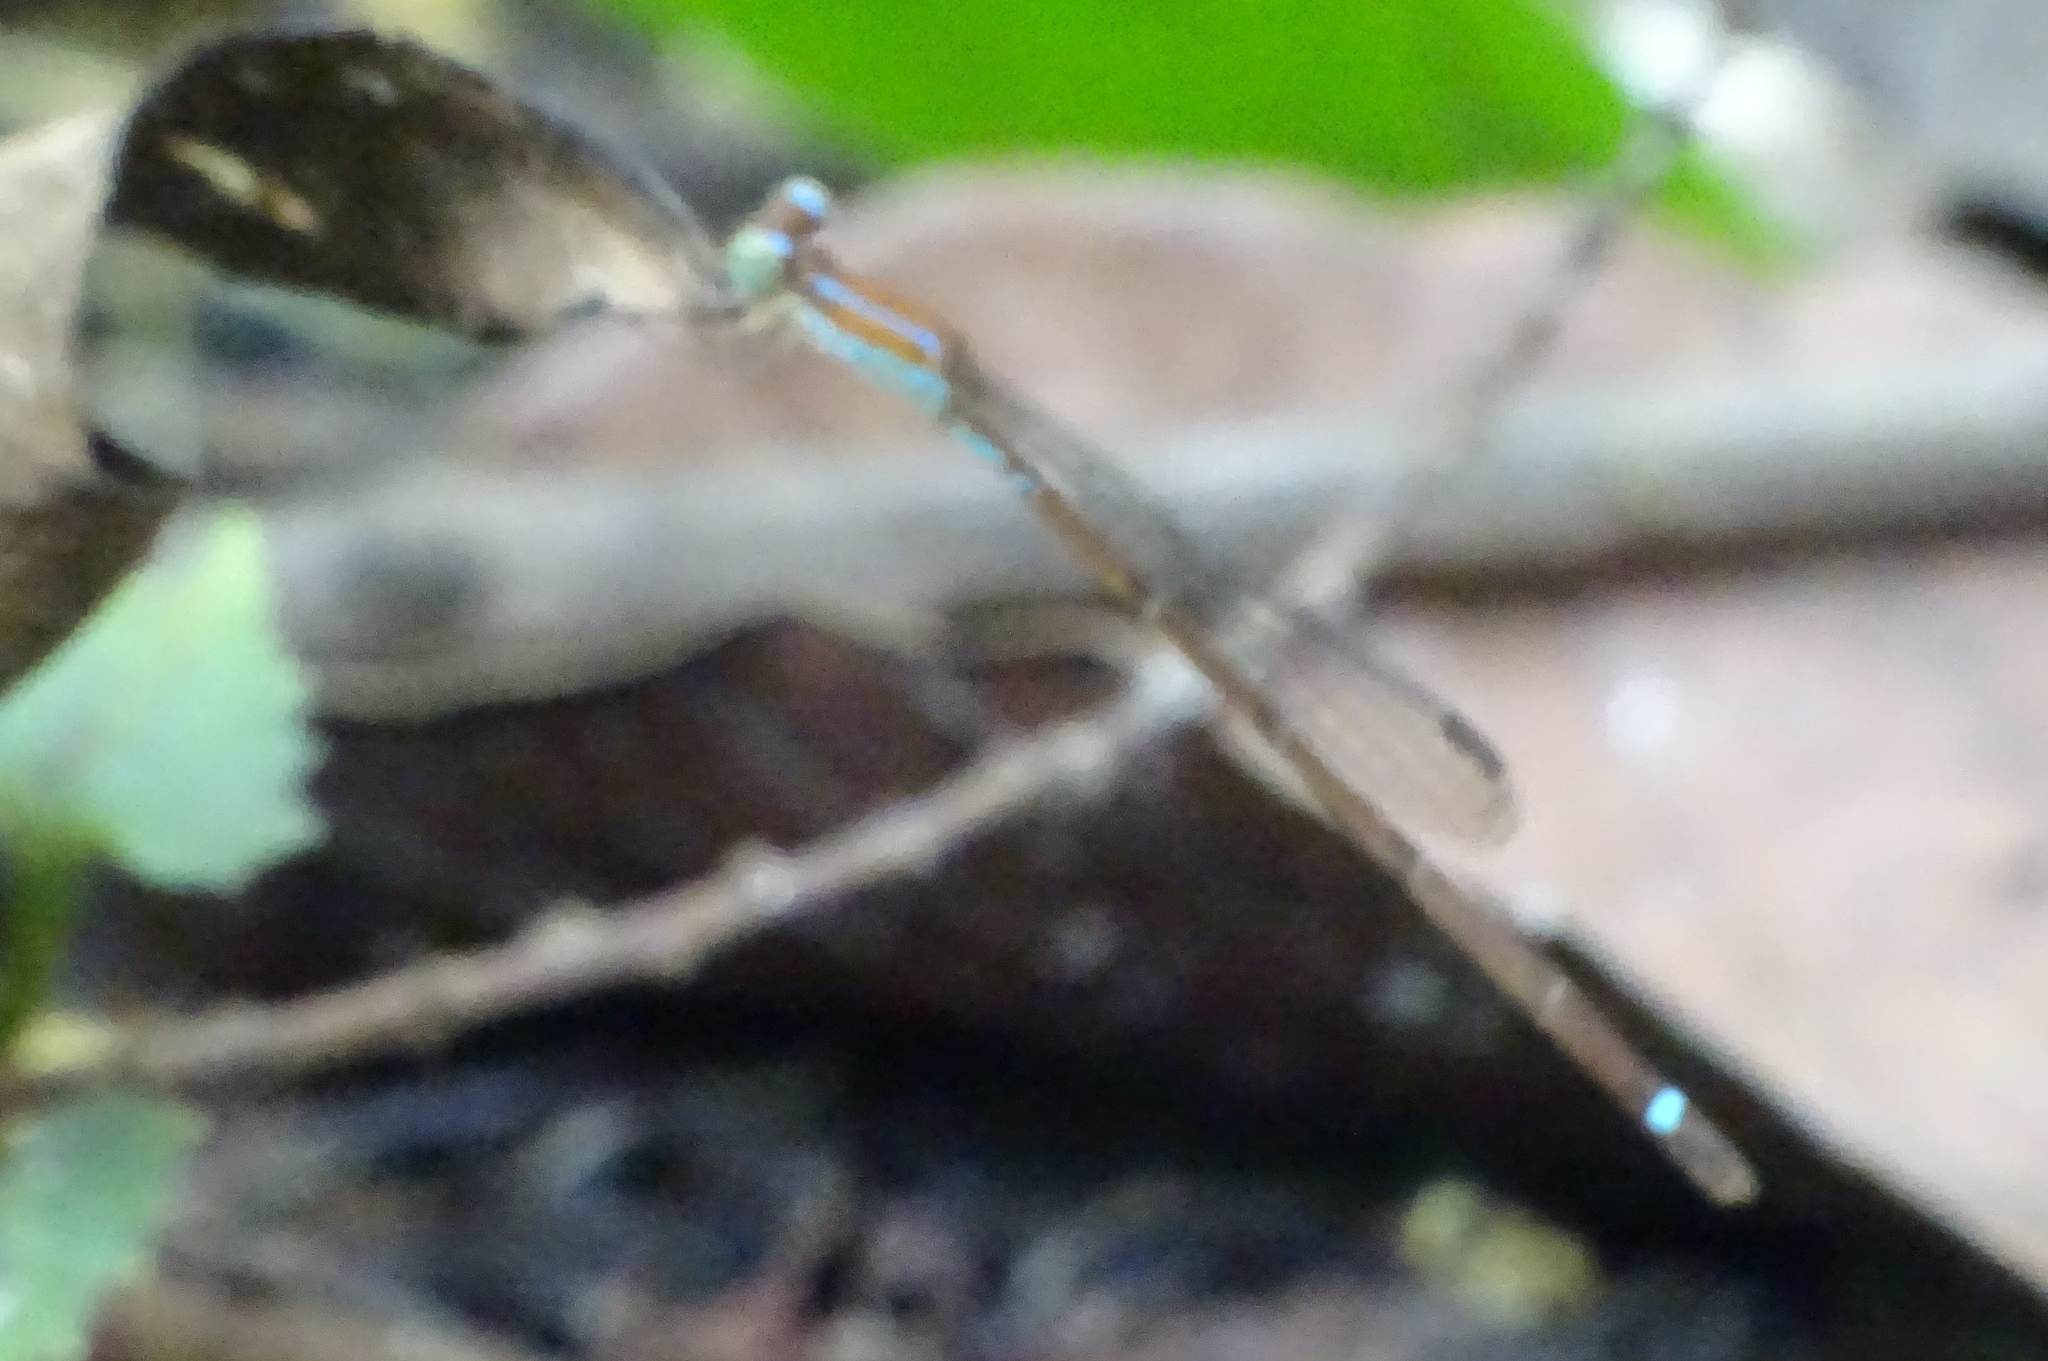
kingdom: Animalia
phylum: Arthropoda
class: Insecta
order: Odonata
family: Coenagrionidae
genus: Mortonagrion
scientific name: Mortonagrion varralli
